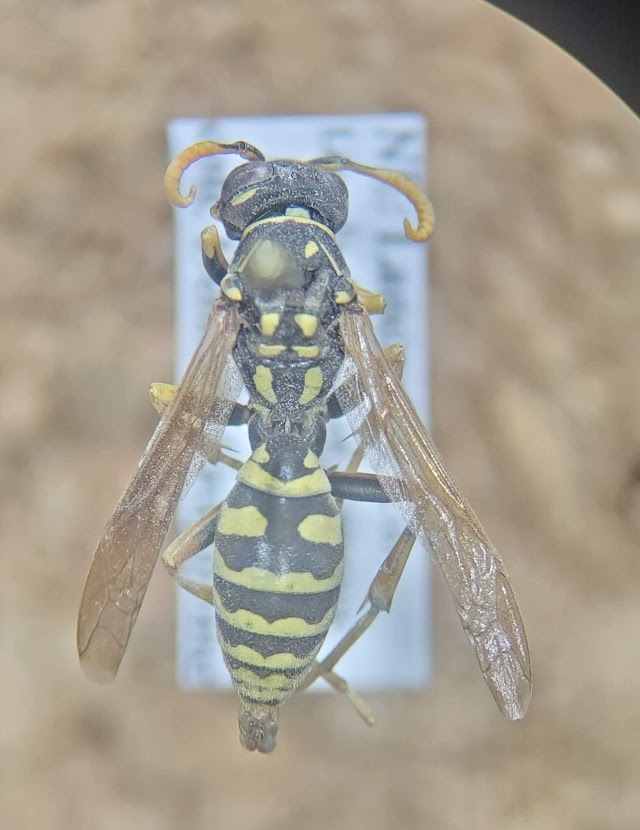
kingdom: Animalia
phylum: Arthropoda
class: Insecta
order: Hymenoptera
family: Eumenidae
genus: Polistes
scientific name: Polistes dominula
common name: Paper wasp
